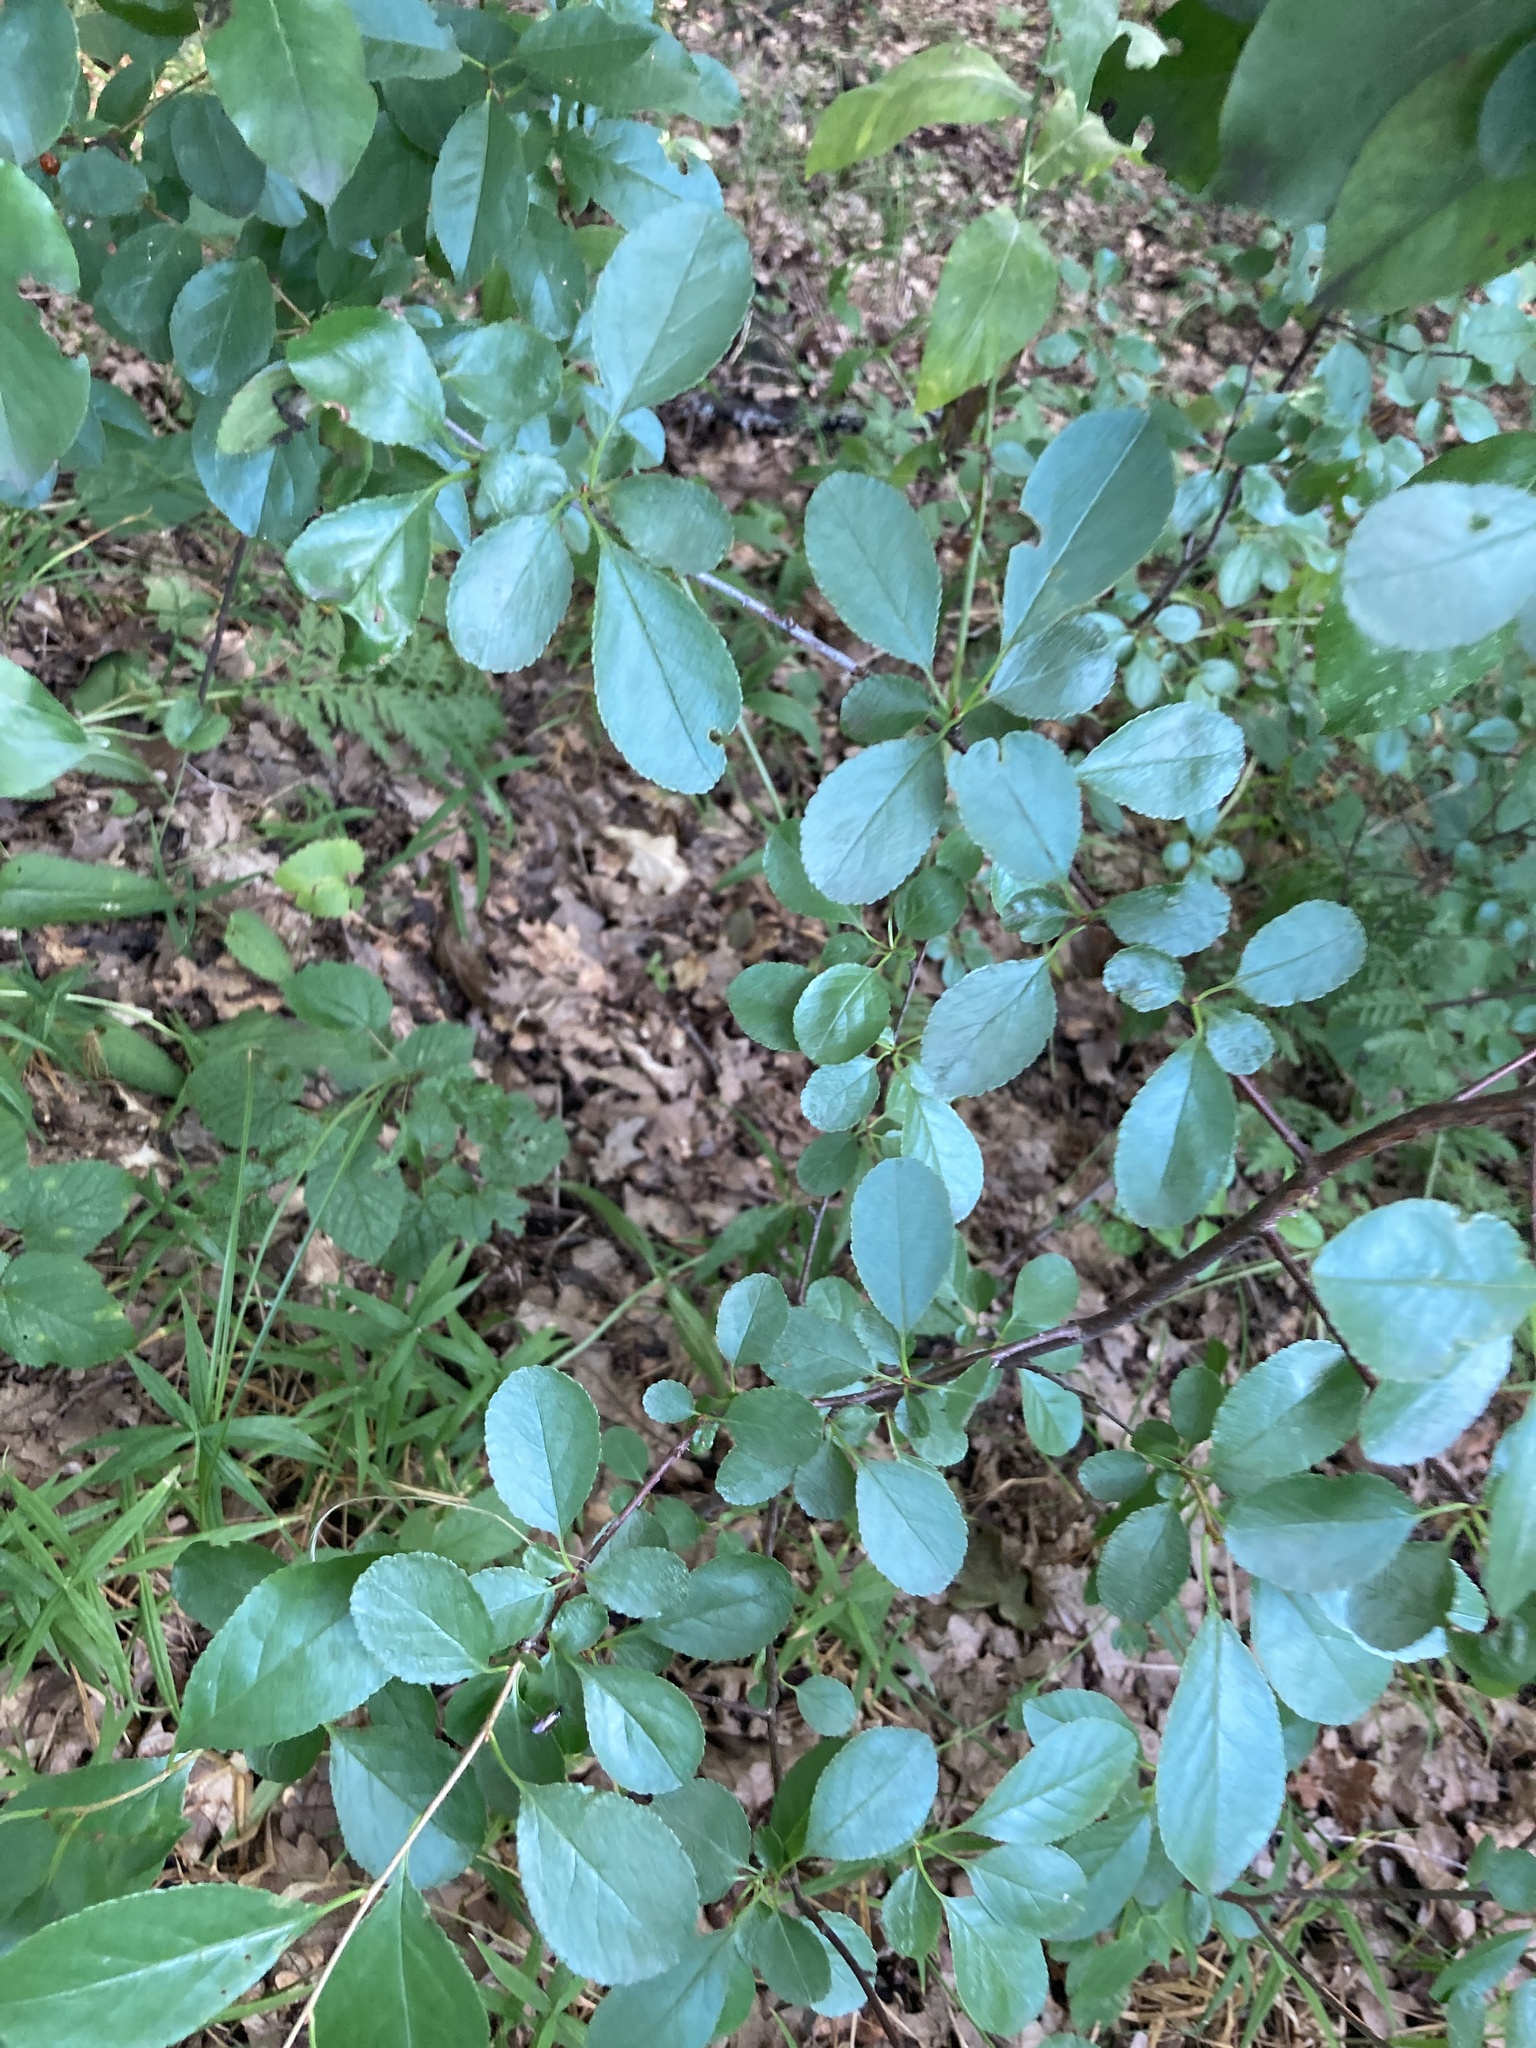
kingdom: Plantae
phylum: Tracheophyta
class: Magnoliopsida
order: Rosales
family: Rosaceae
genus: Prunus
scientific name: Prunus fruticosa
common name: European dwarf cherry
